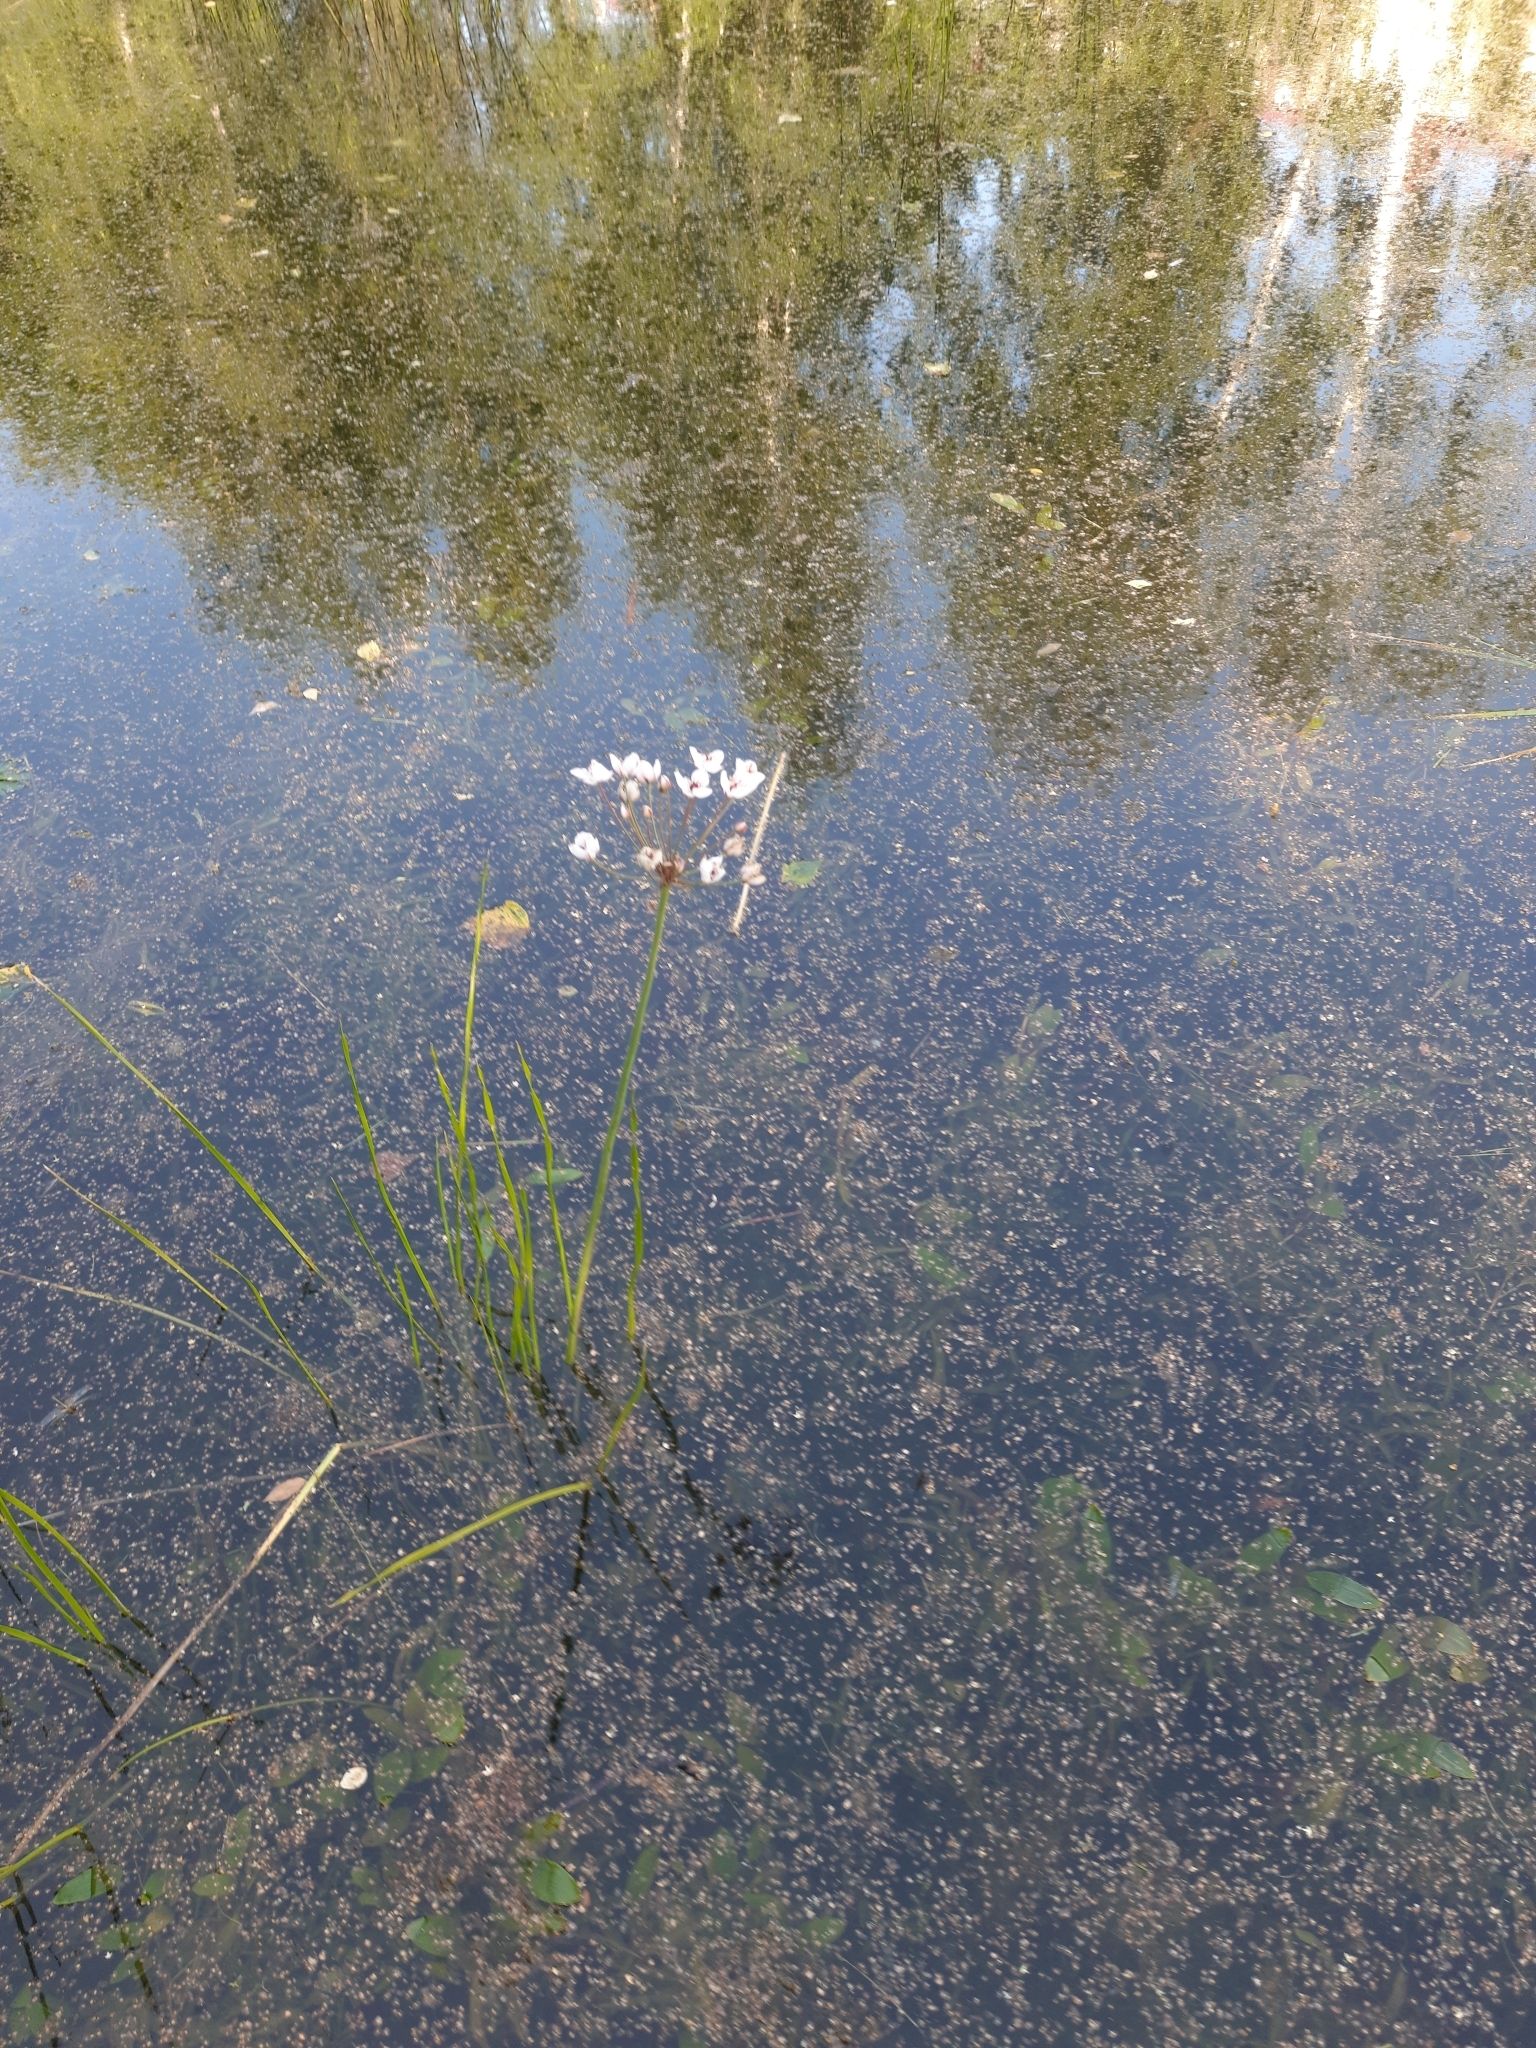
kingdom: Plantae
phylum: Tracheophyta
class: Liliopsida
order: Alismatales
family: Butomaceae
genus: Butomus
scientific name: Butomus umbellatus
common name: Flowering-rush
